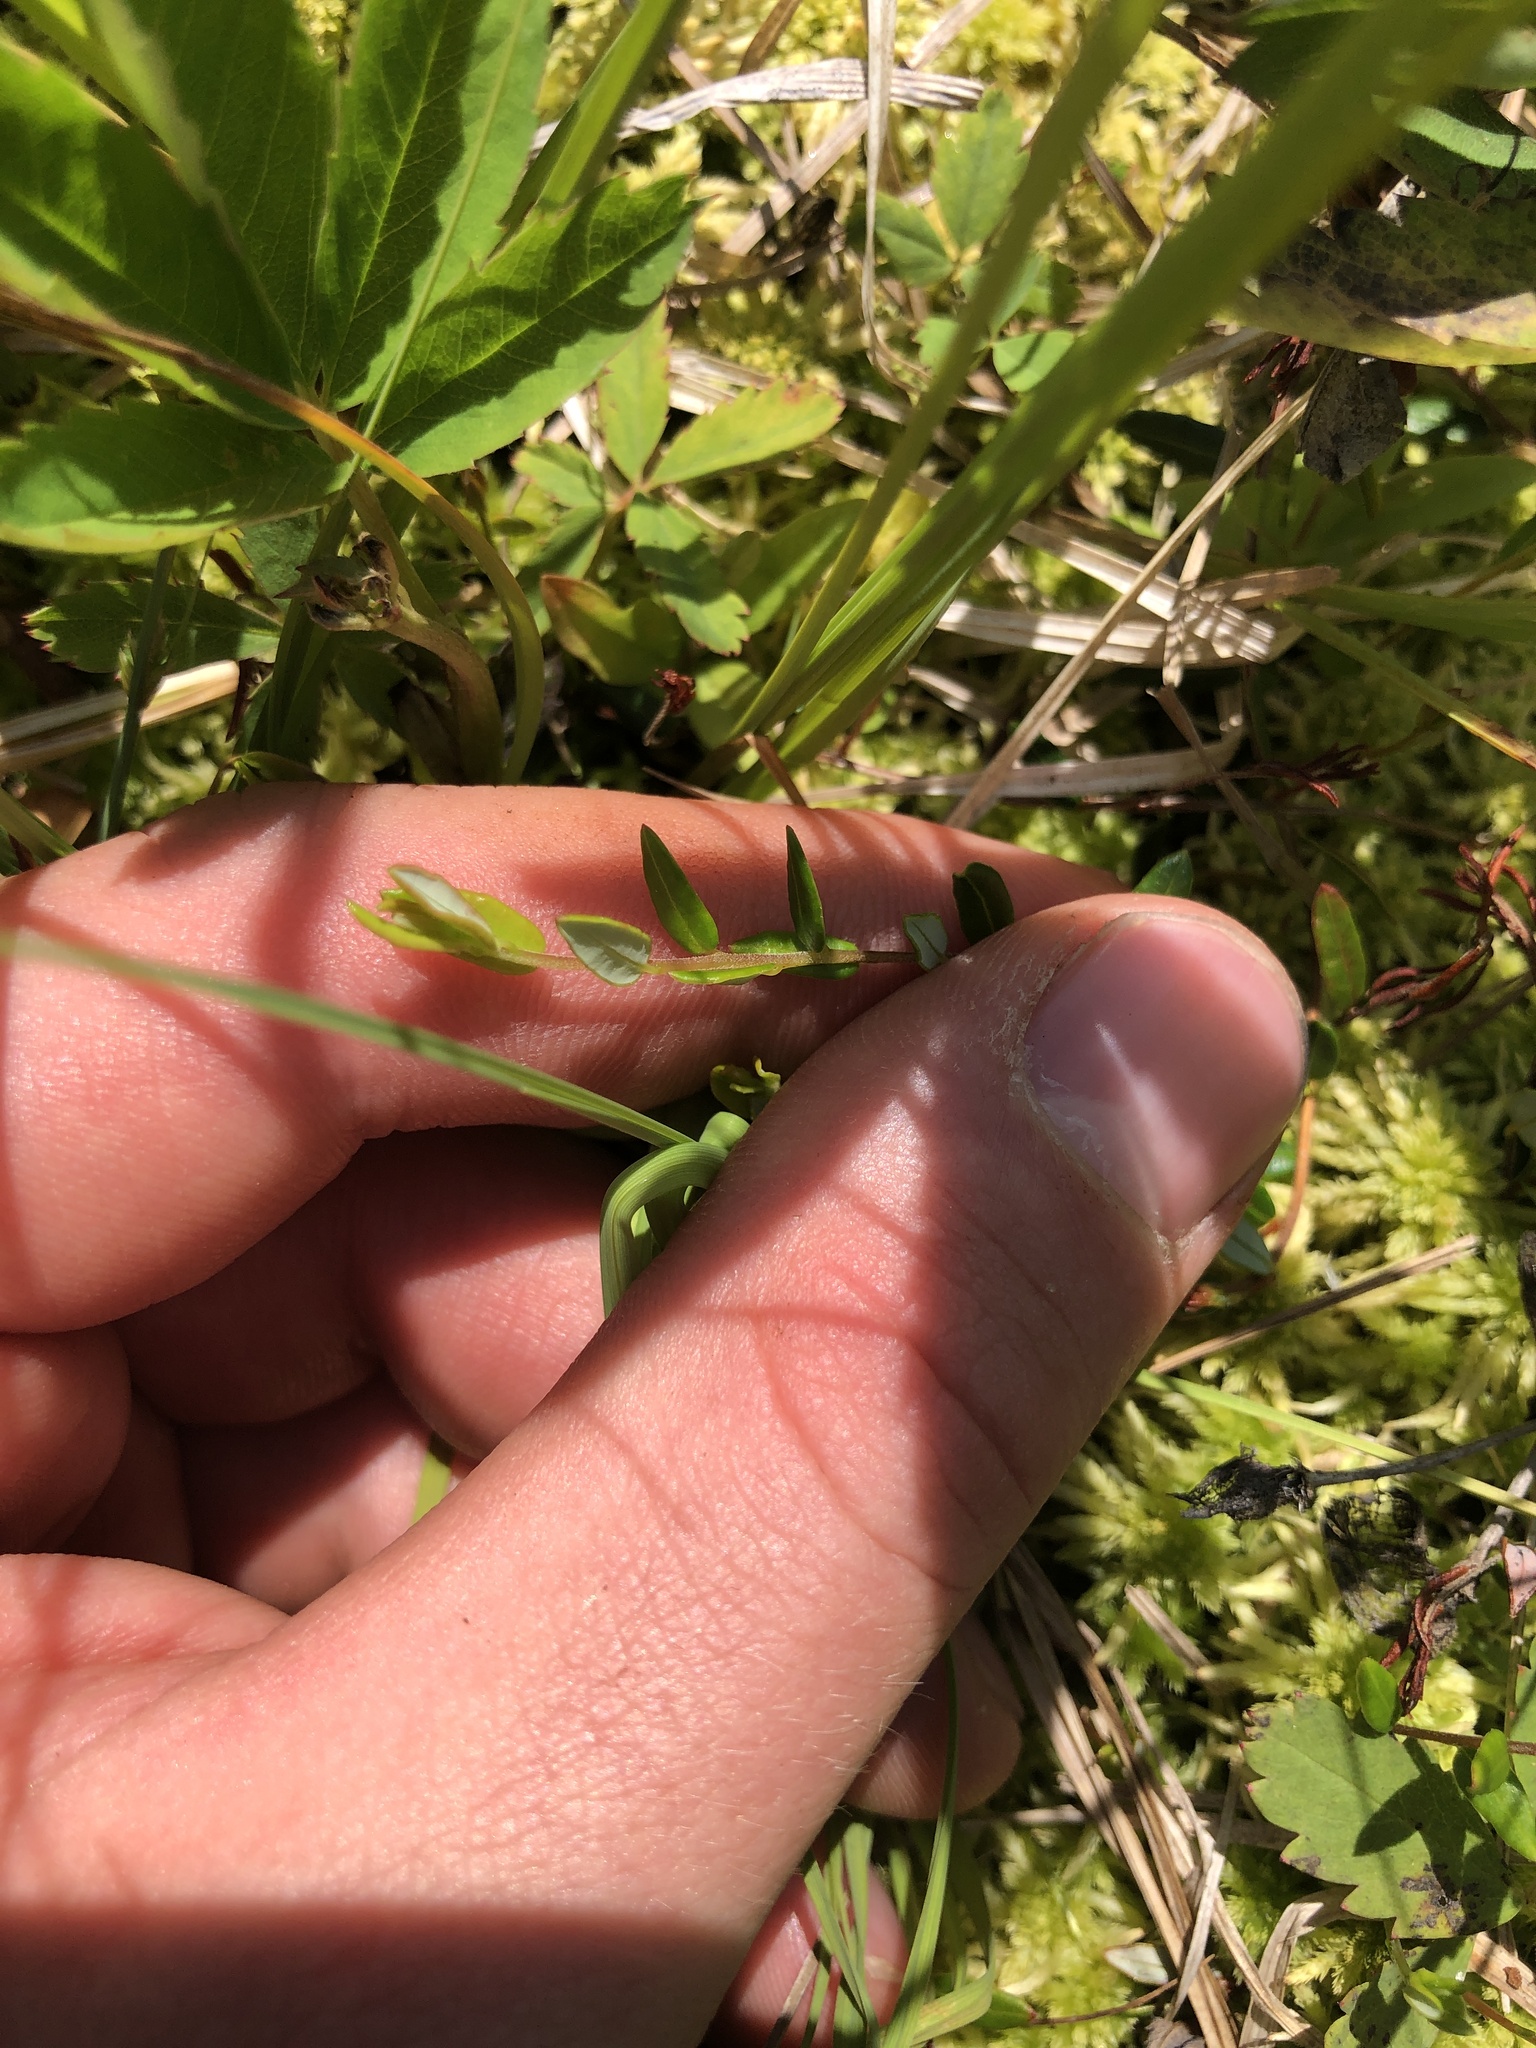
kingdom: Plantae
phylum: Tracheophyta
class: Magnoliopsida
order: Ericales
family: Ericaceae
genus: Vaccinium
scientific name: Vaccinium oxycoccos
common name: Cranberry
